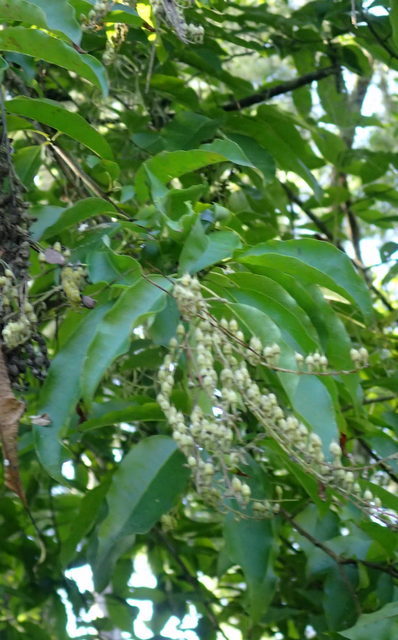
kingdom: Plantae
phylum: Tracheophyta
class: Magnoliopsida
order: Ericales
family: Ericaceae
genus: Oxydendrum
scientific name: Oxydendrum arboreum
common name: Sourwood
